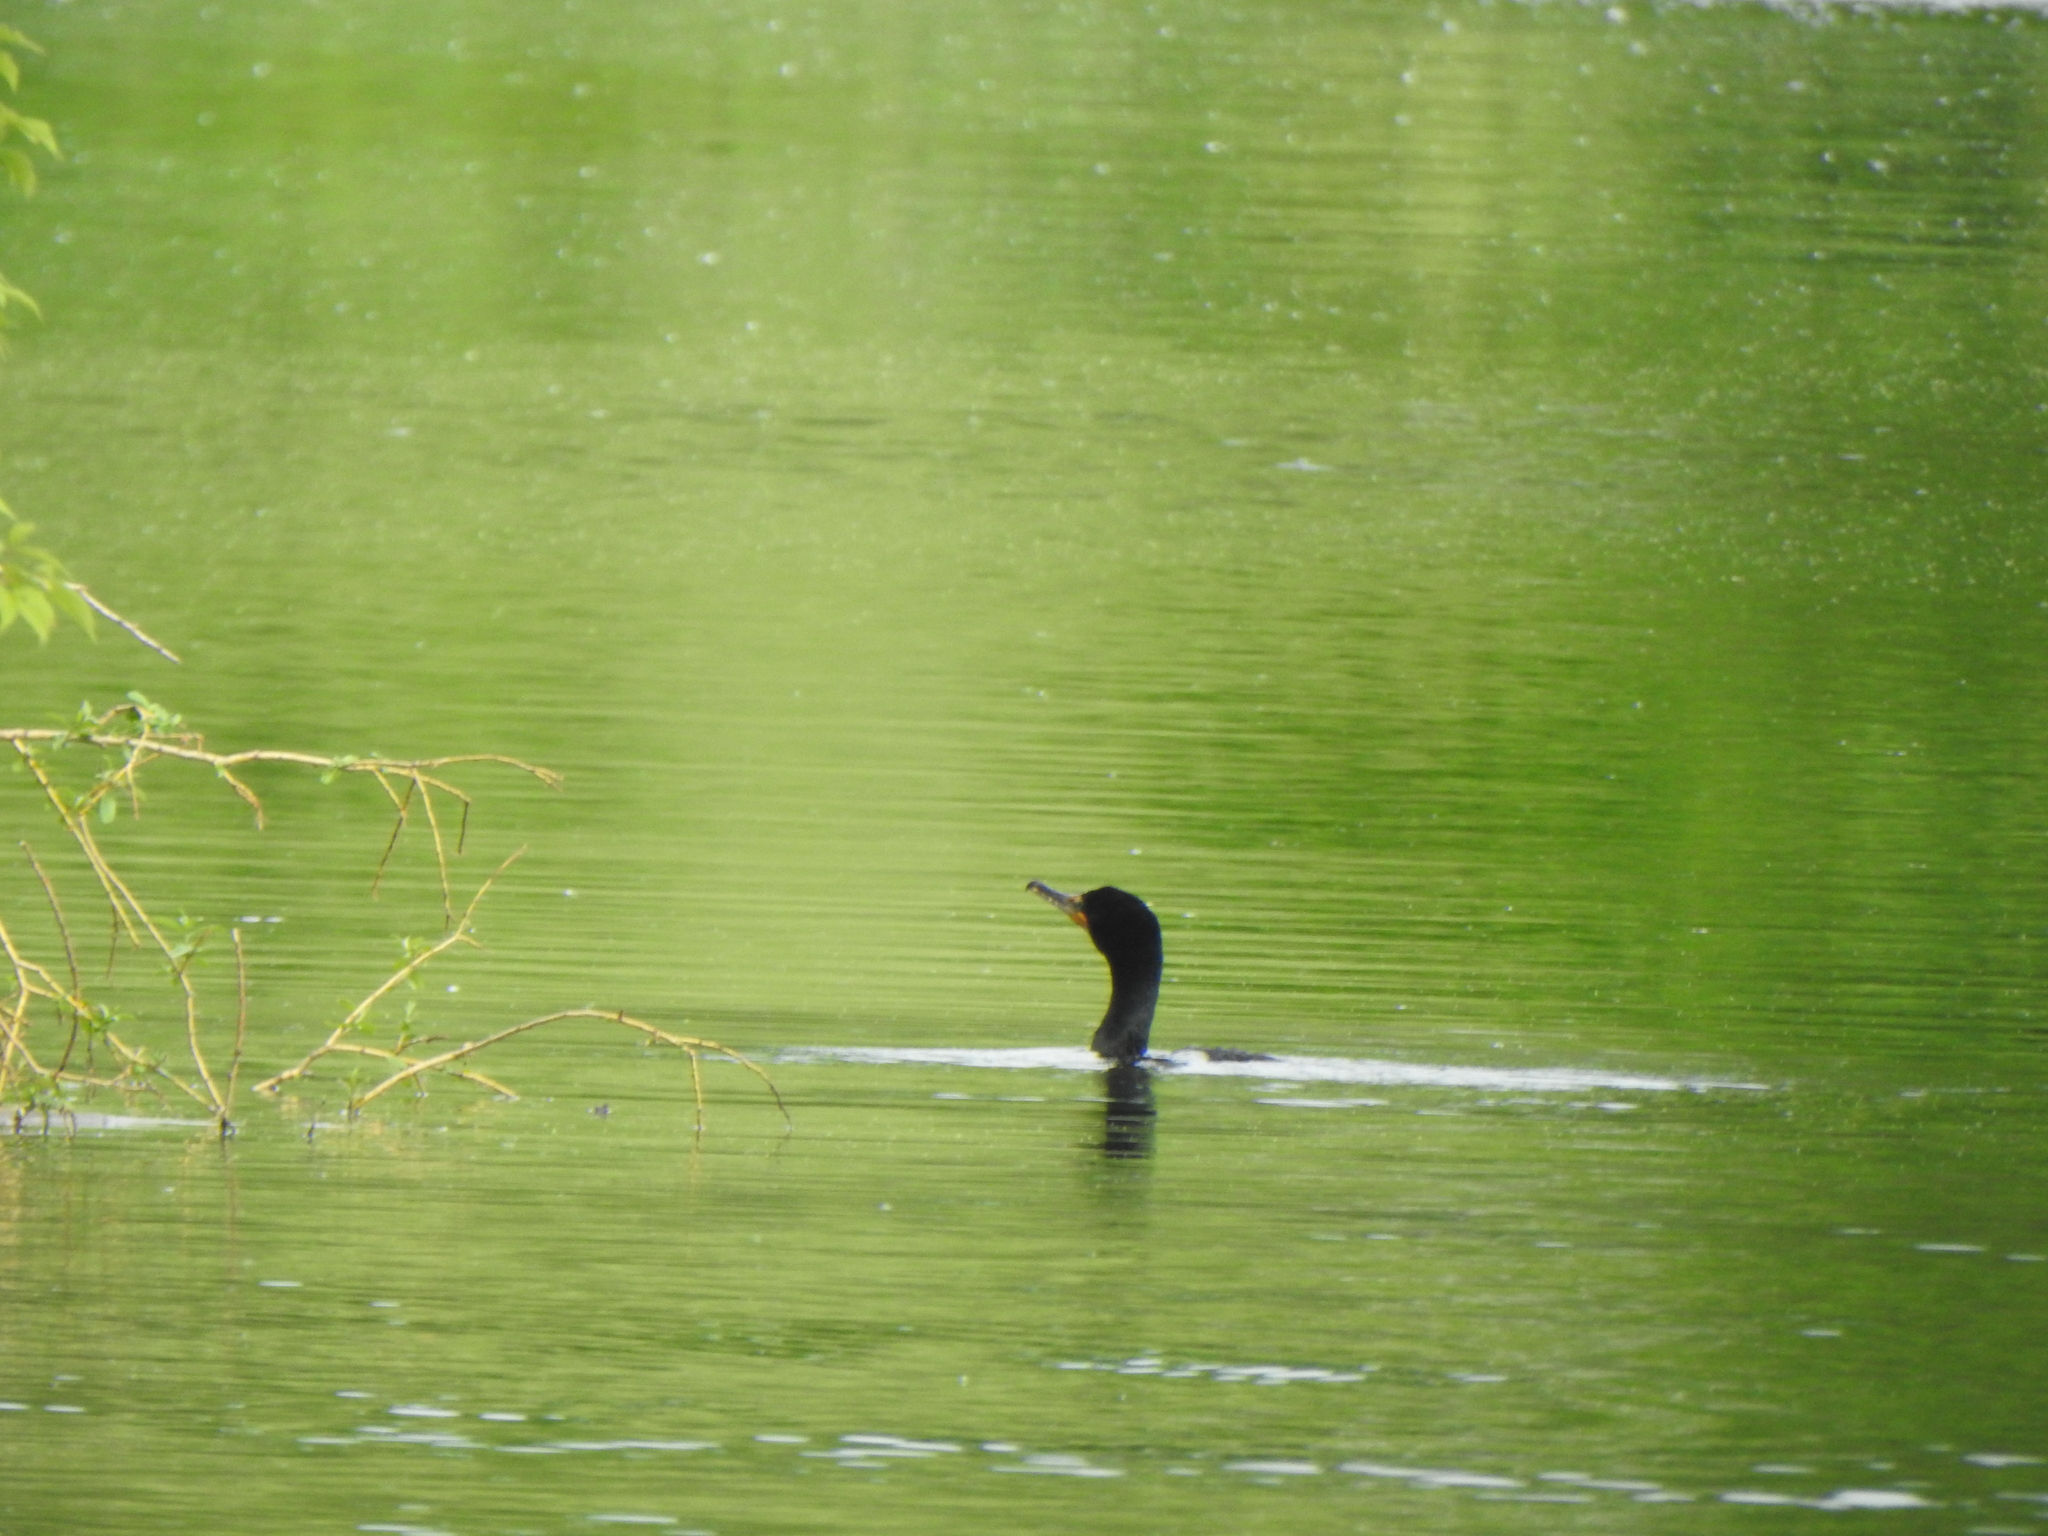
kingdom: Animalia
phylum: Chordata
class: Aves
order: Suliformes
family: Phalacrocoracidae
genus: Phalacrocorax
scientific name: Phalacrocorax auritus
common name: Double-crested cormorant
